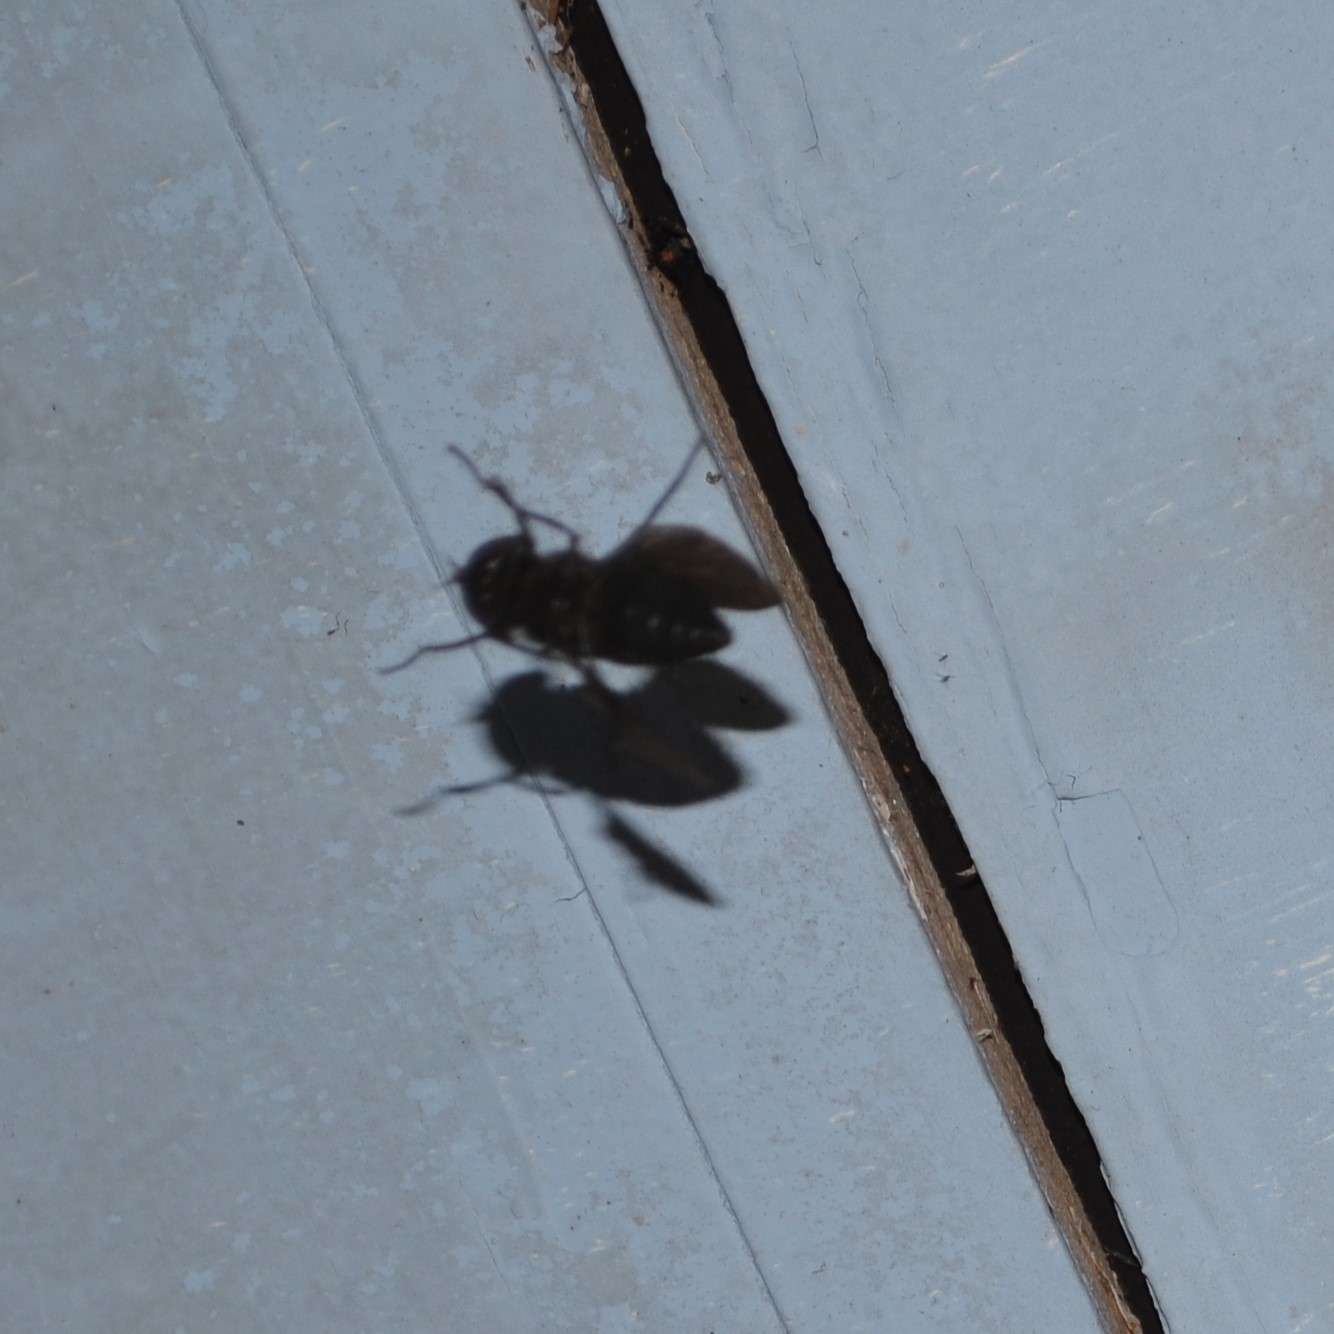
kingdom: Animalia
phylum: Arthropoda
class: Insecta
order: Diptera
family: Tabanidae
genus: Tabanus
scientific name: Tabanus atratus
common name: Black horse fly
